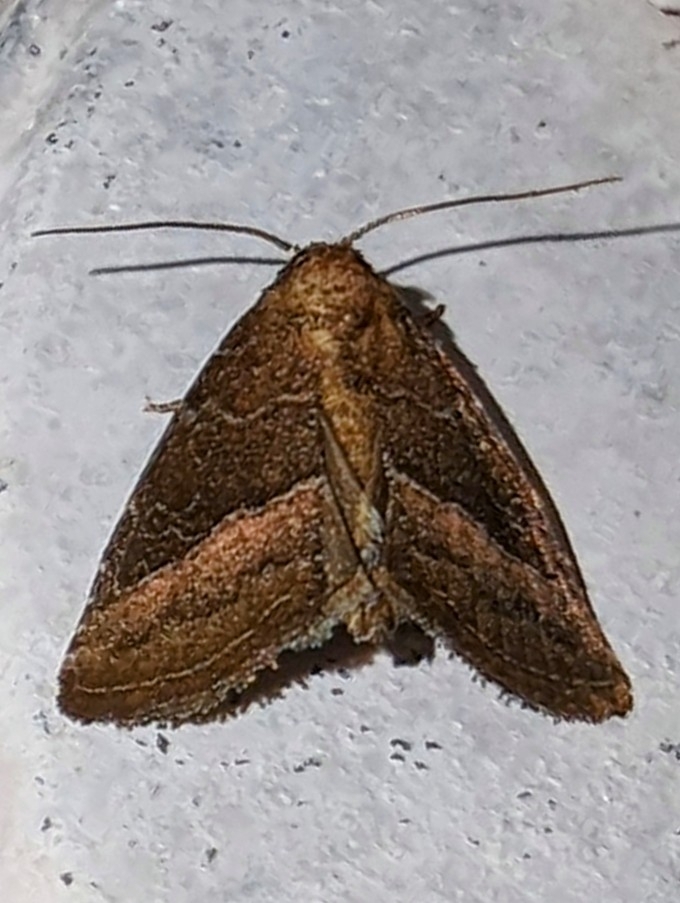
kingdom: Animalia
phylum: Arthropoda
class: Insecta
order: Lepidoptera
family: Noctuidae
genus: Ogdoconta
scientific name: Ogdoconta cinereola
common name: Common pinkband
